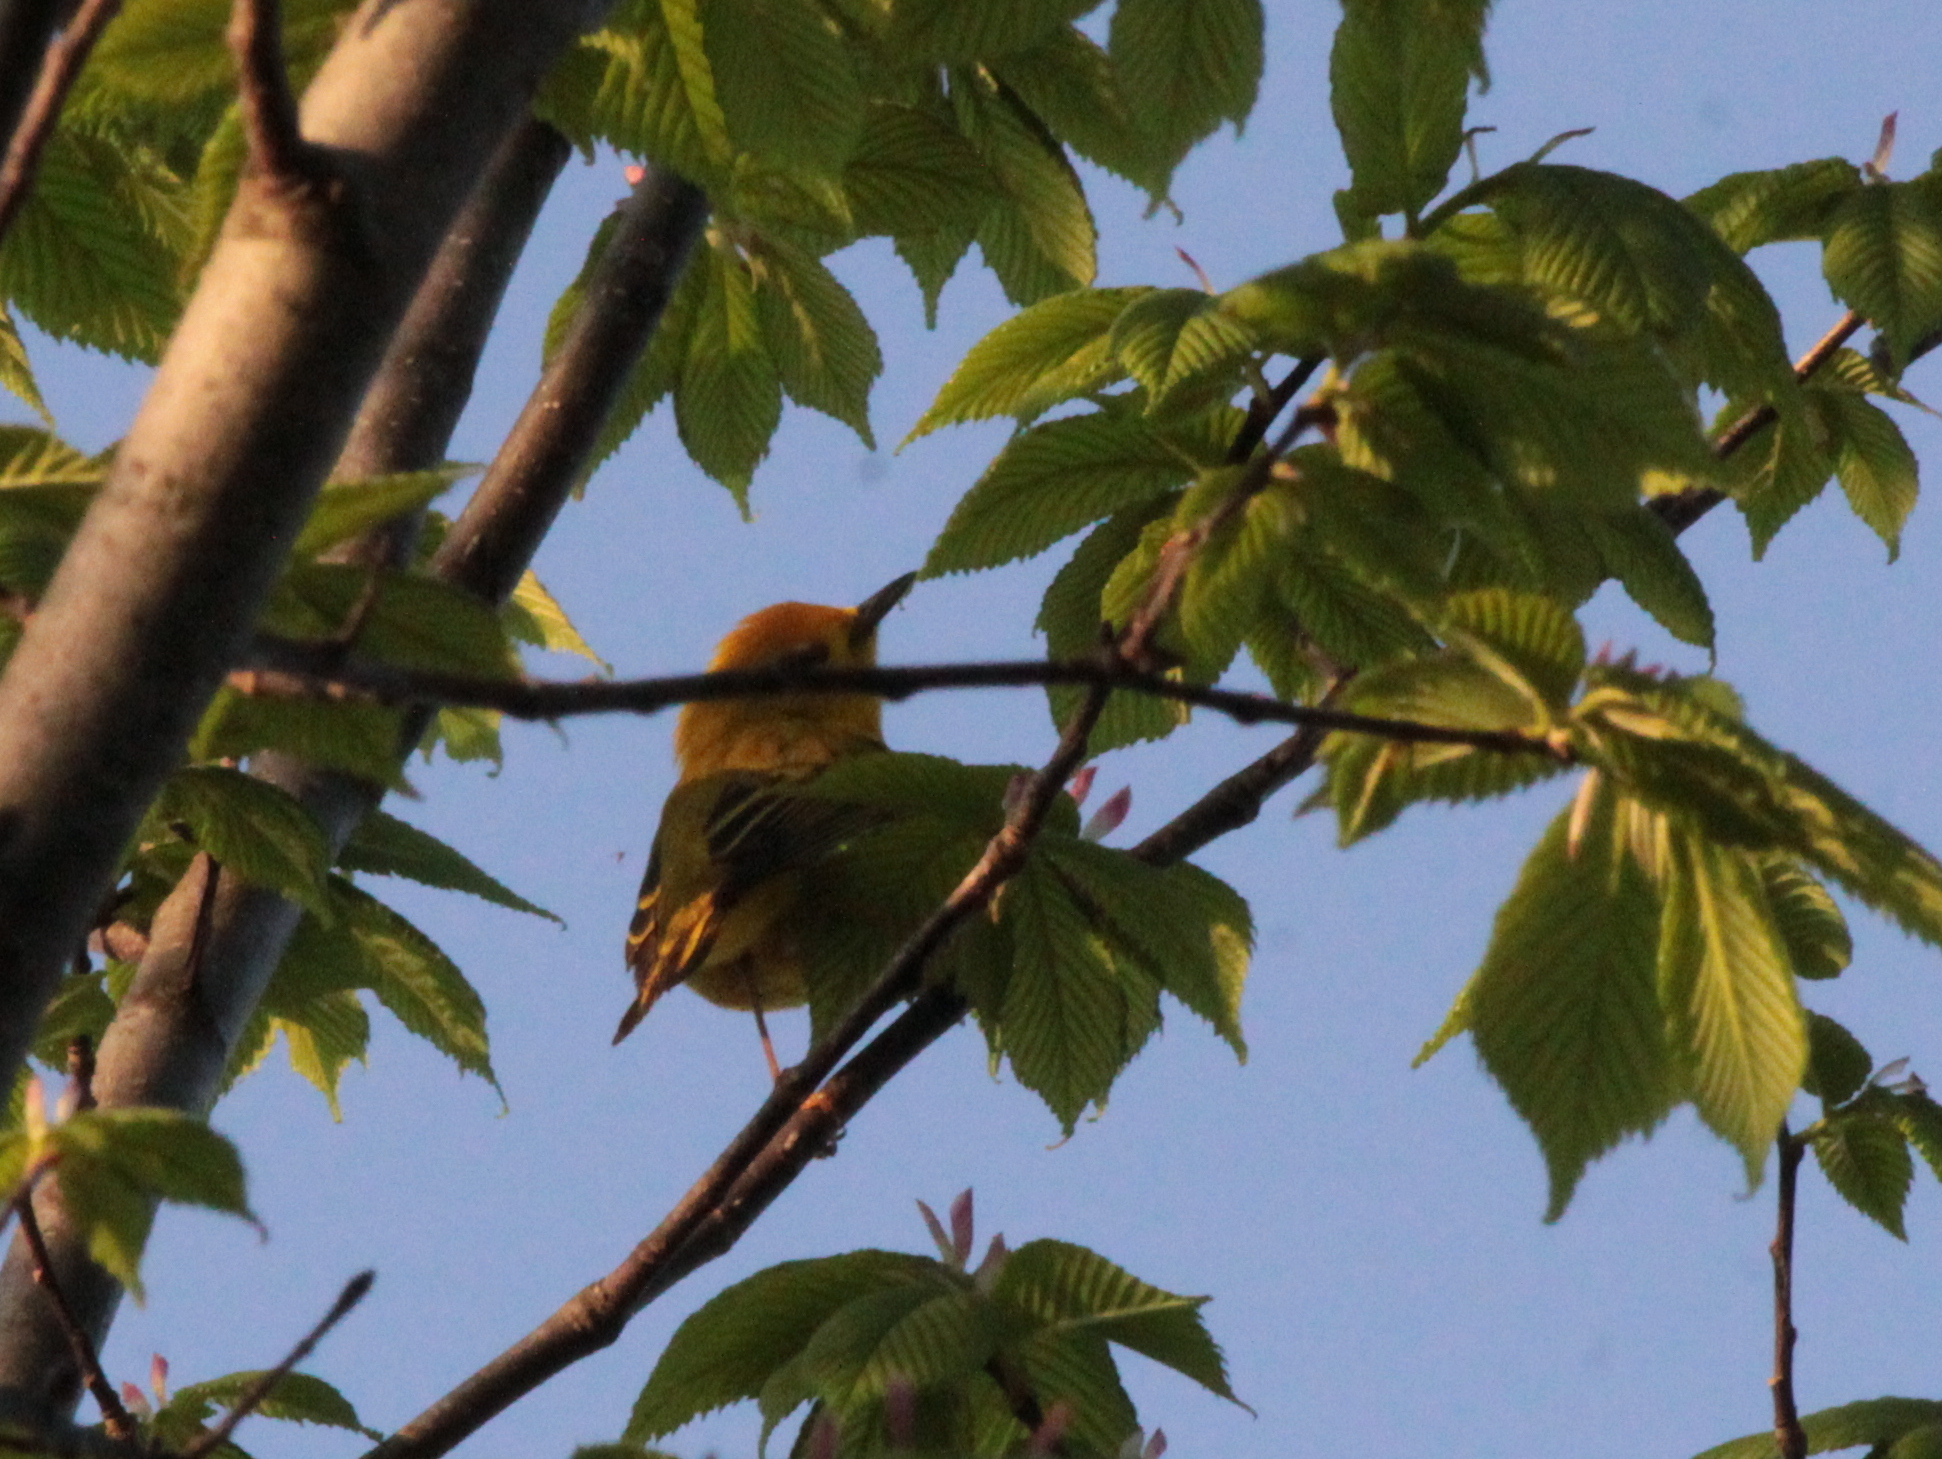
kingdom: Animalia
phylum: Chordata
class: Aves
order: Passeriformes
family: Parulidae
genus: Setophaga
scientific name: Setophaga petechia
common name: Yellow warbler
